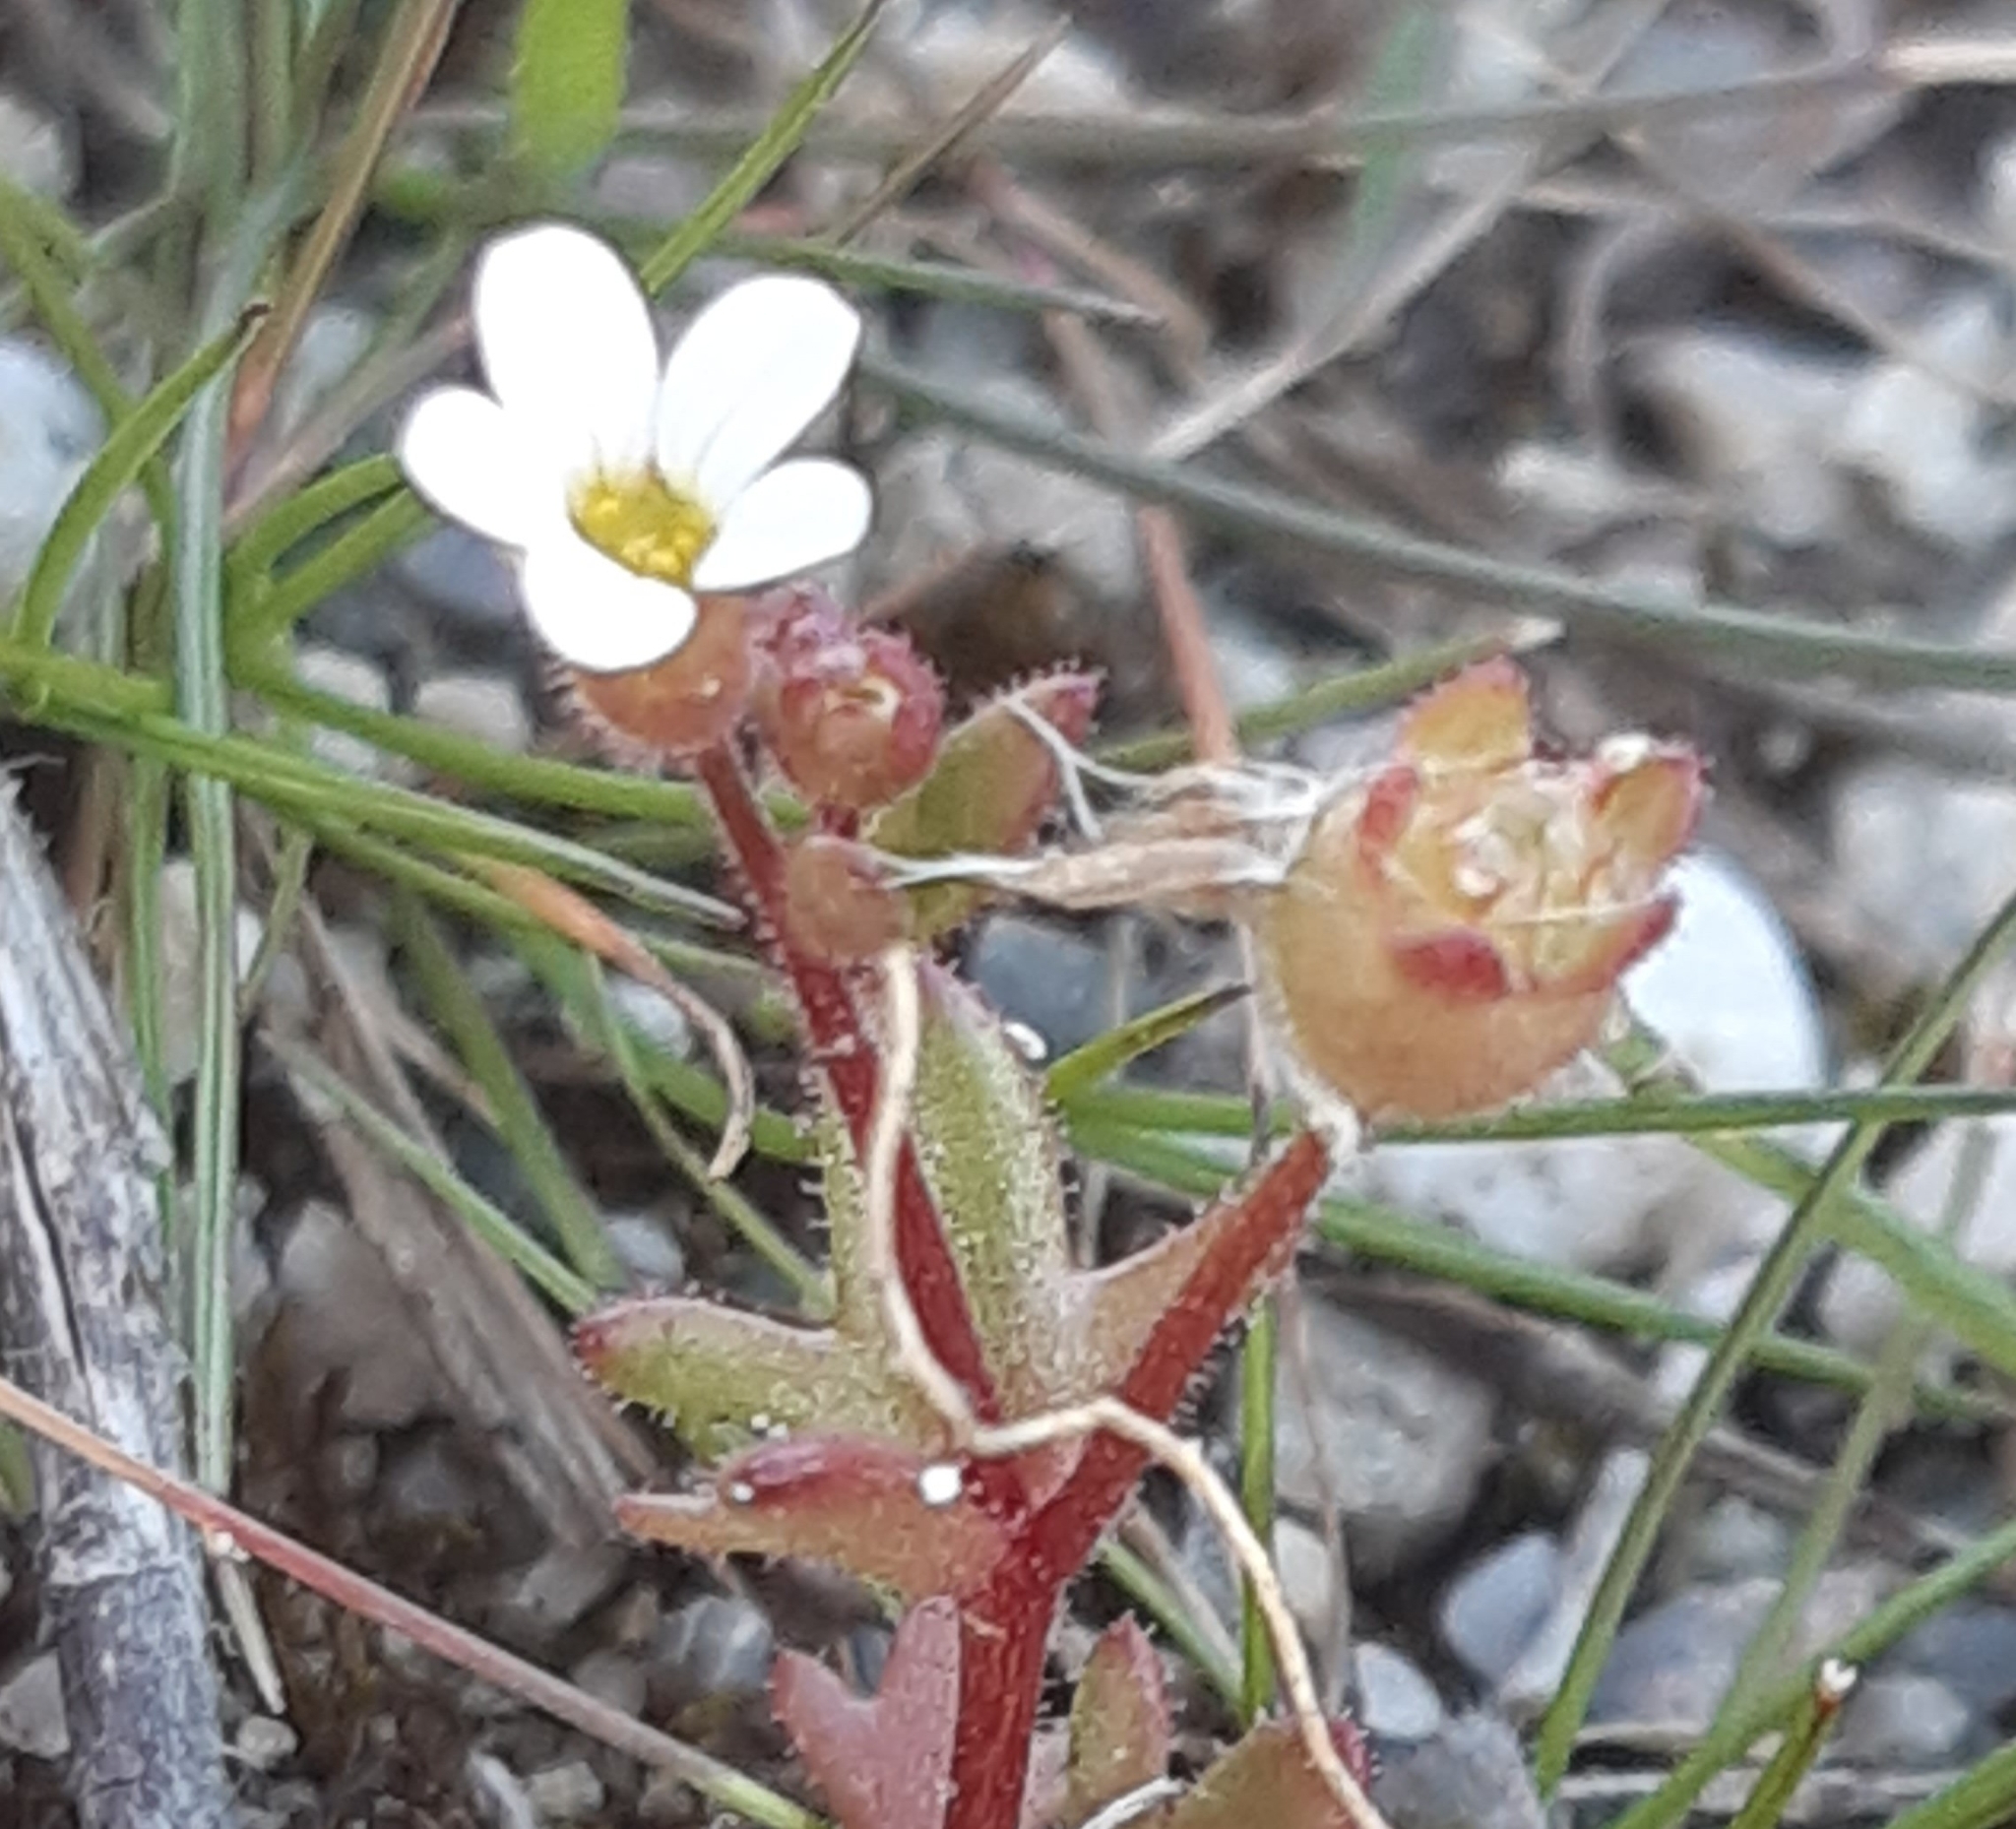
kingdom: Plantae
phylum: Tracheophyta
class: Magnoliopsida
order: Saxifragales
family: Saxifragaceae
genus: Saxifraga
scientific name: Saxifraga tridactylites
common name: Rue-leaved saxifrage
